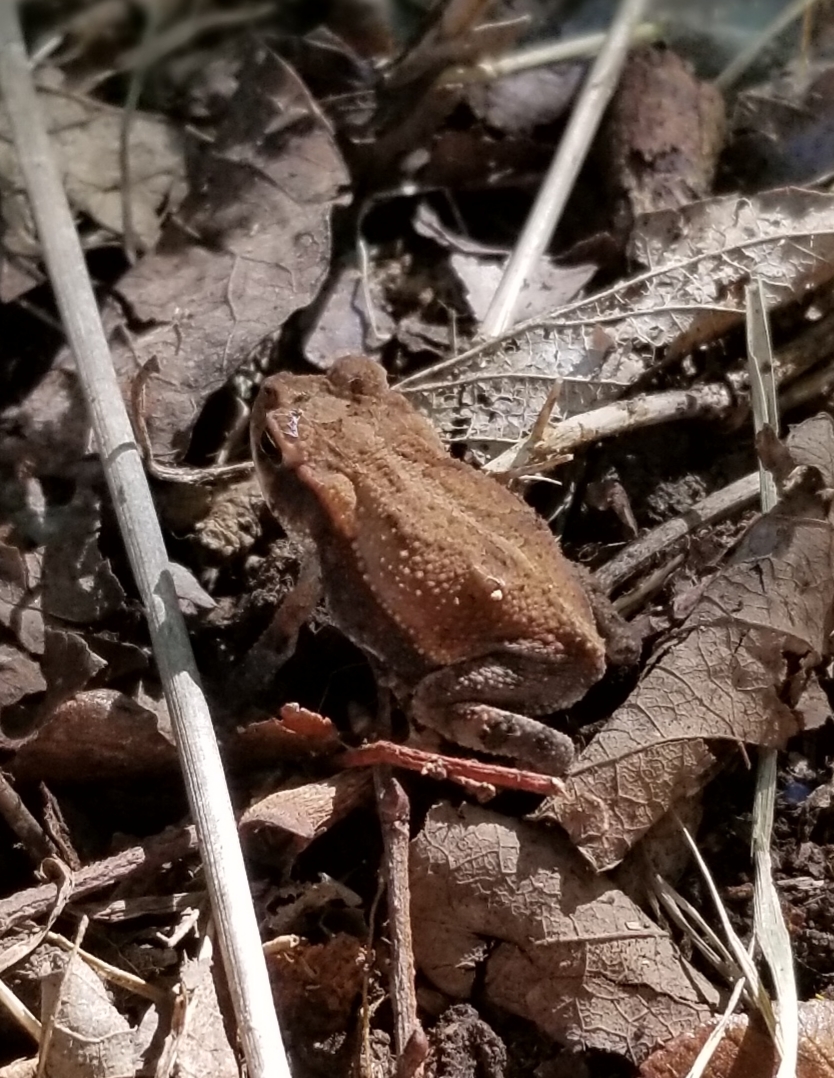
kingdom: Animalia
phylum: Chordata
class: Amphibia
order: Anura
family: Bufonidae
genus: Incilius
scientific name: Incilius nebulifer
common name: Gulf coast toad
